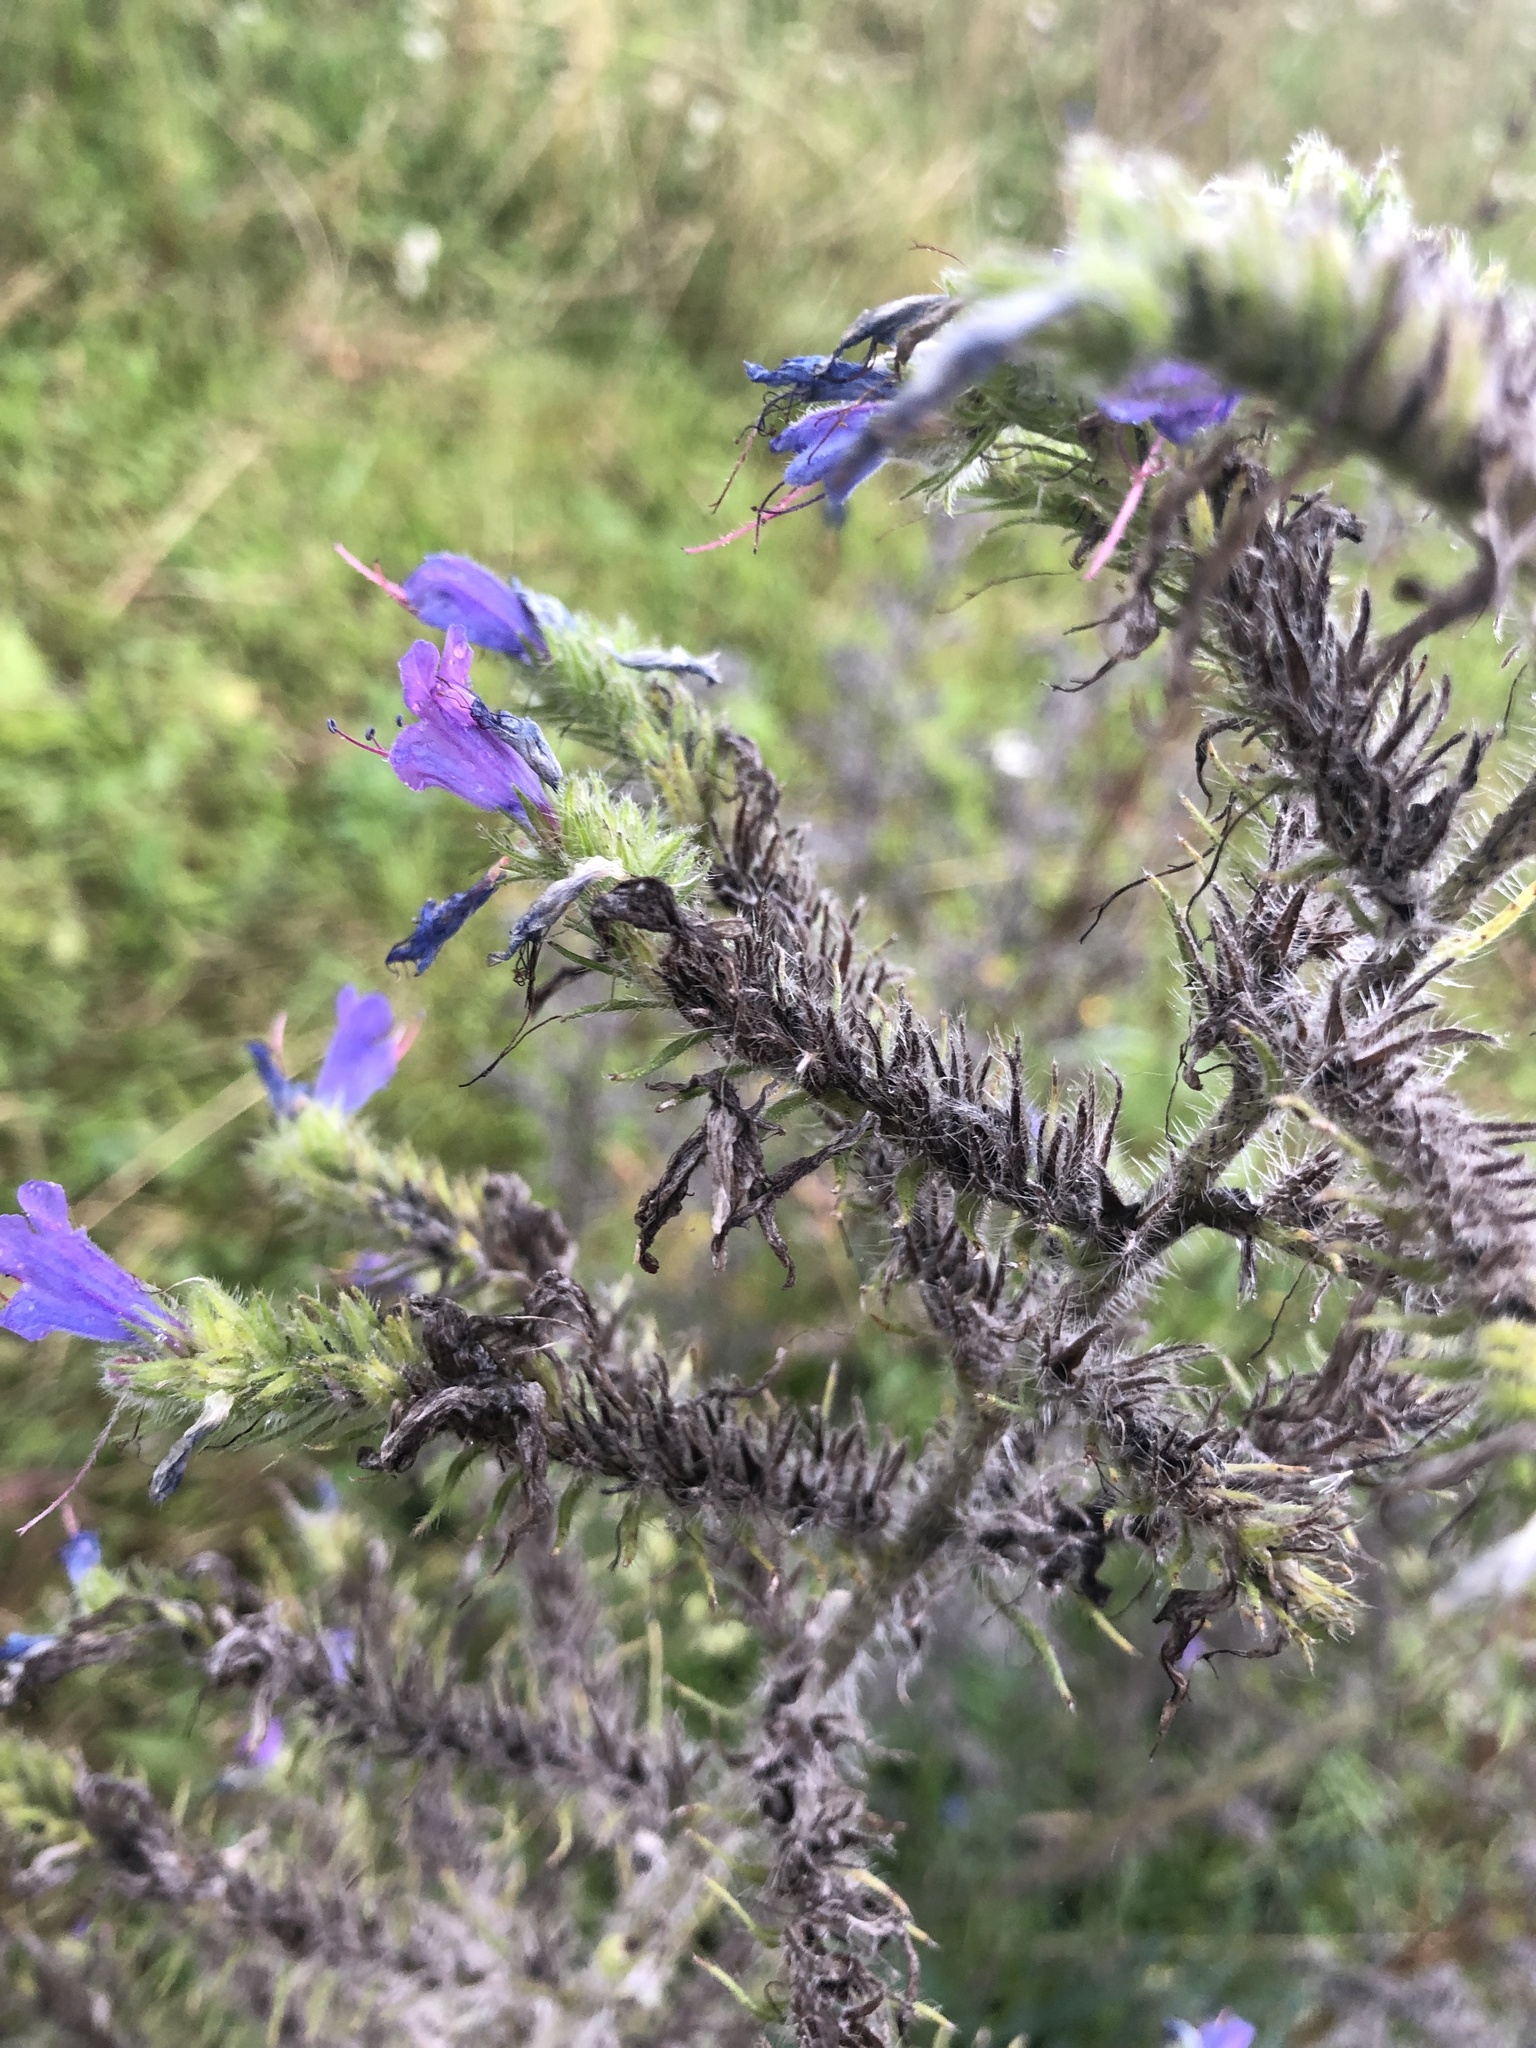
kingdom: Plantae
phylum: Tracheophyta
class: Magnoliopsida
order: Boraginales
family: Boraginaceae
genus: Echium
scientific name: Echium vulgare
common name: Common viper's bugloss
